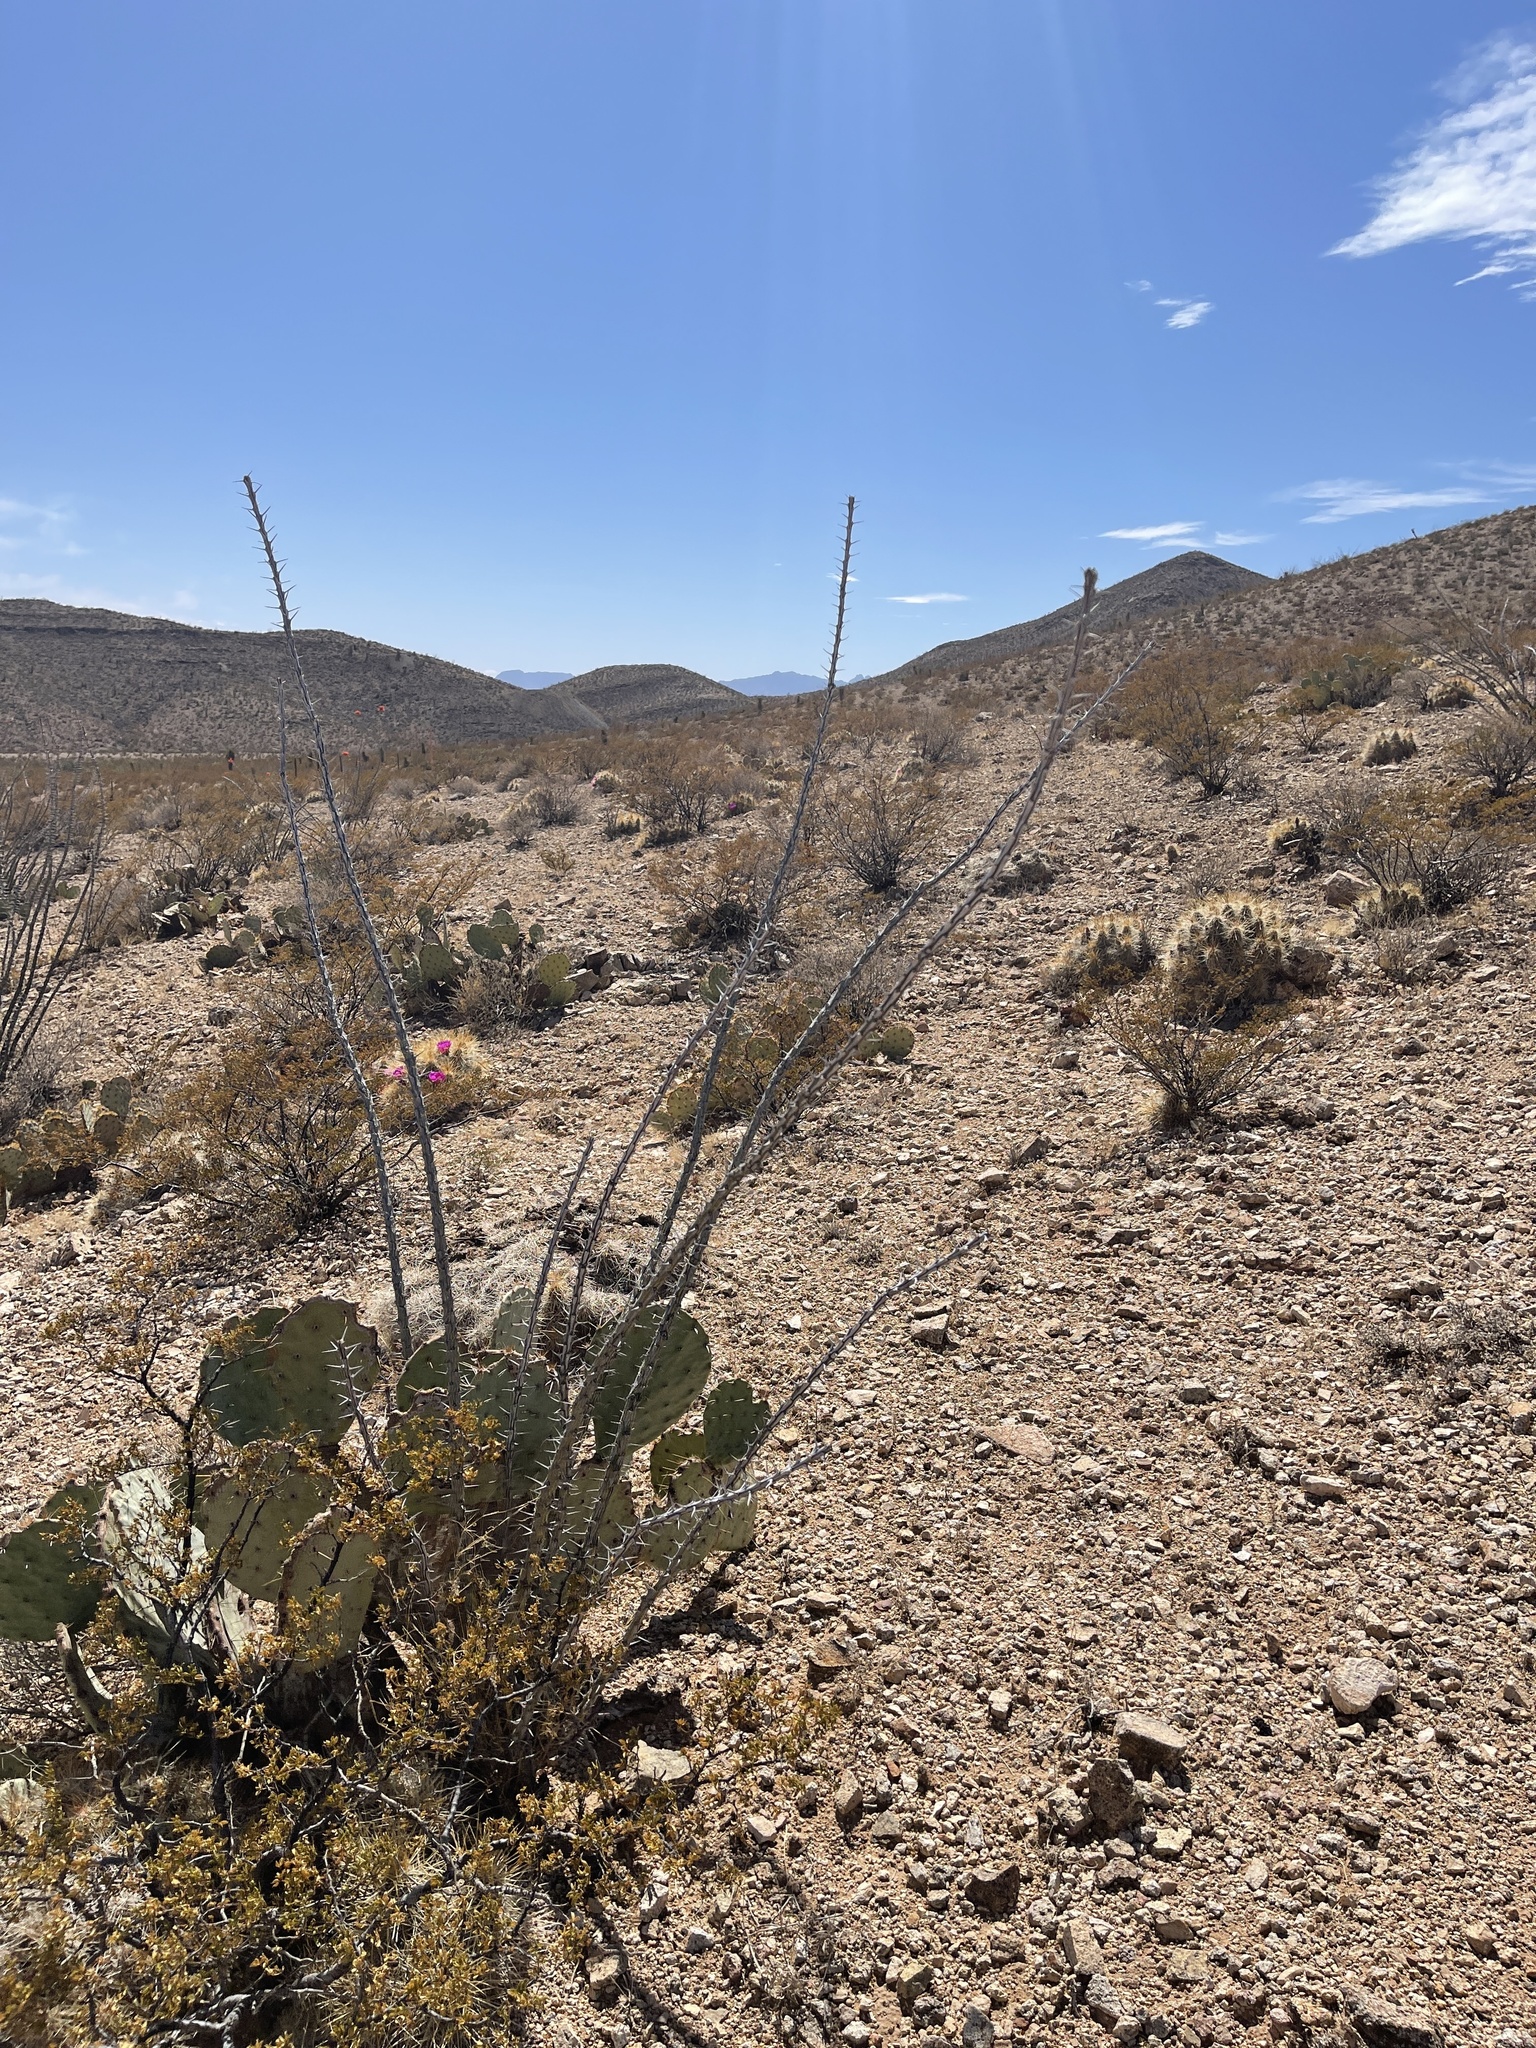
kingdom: Plantae
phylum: Tracheophyta
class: Magnoliopsida
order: Ericales
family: Fouquieriaceae
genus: Fouquieria
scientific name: Fouquieria splendens
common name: Vine-cactus
